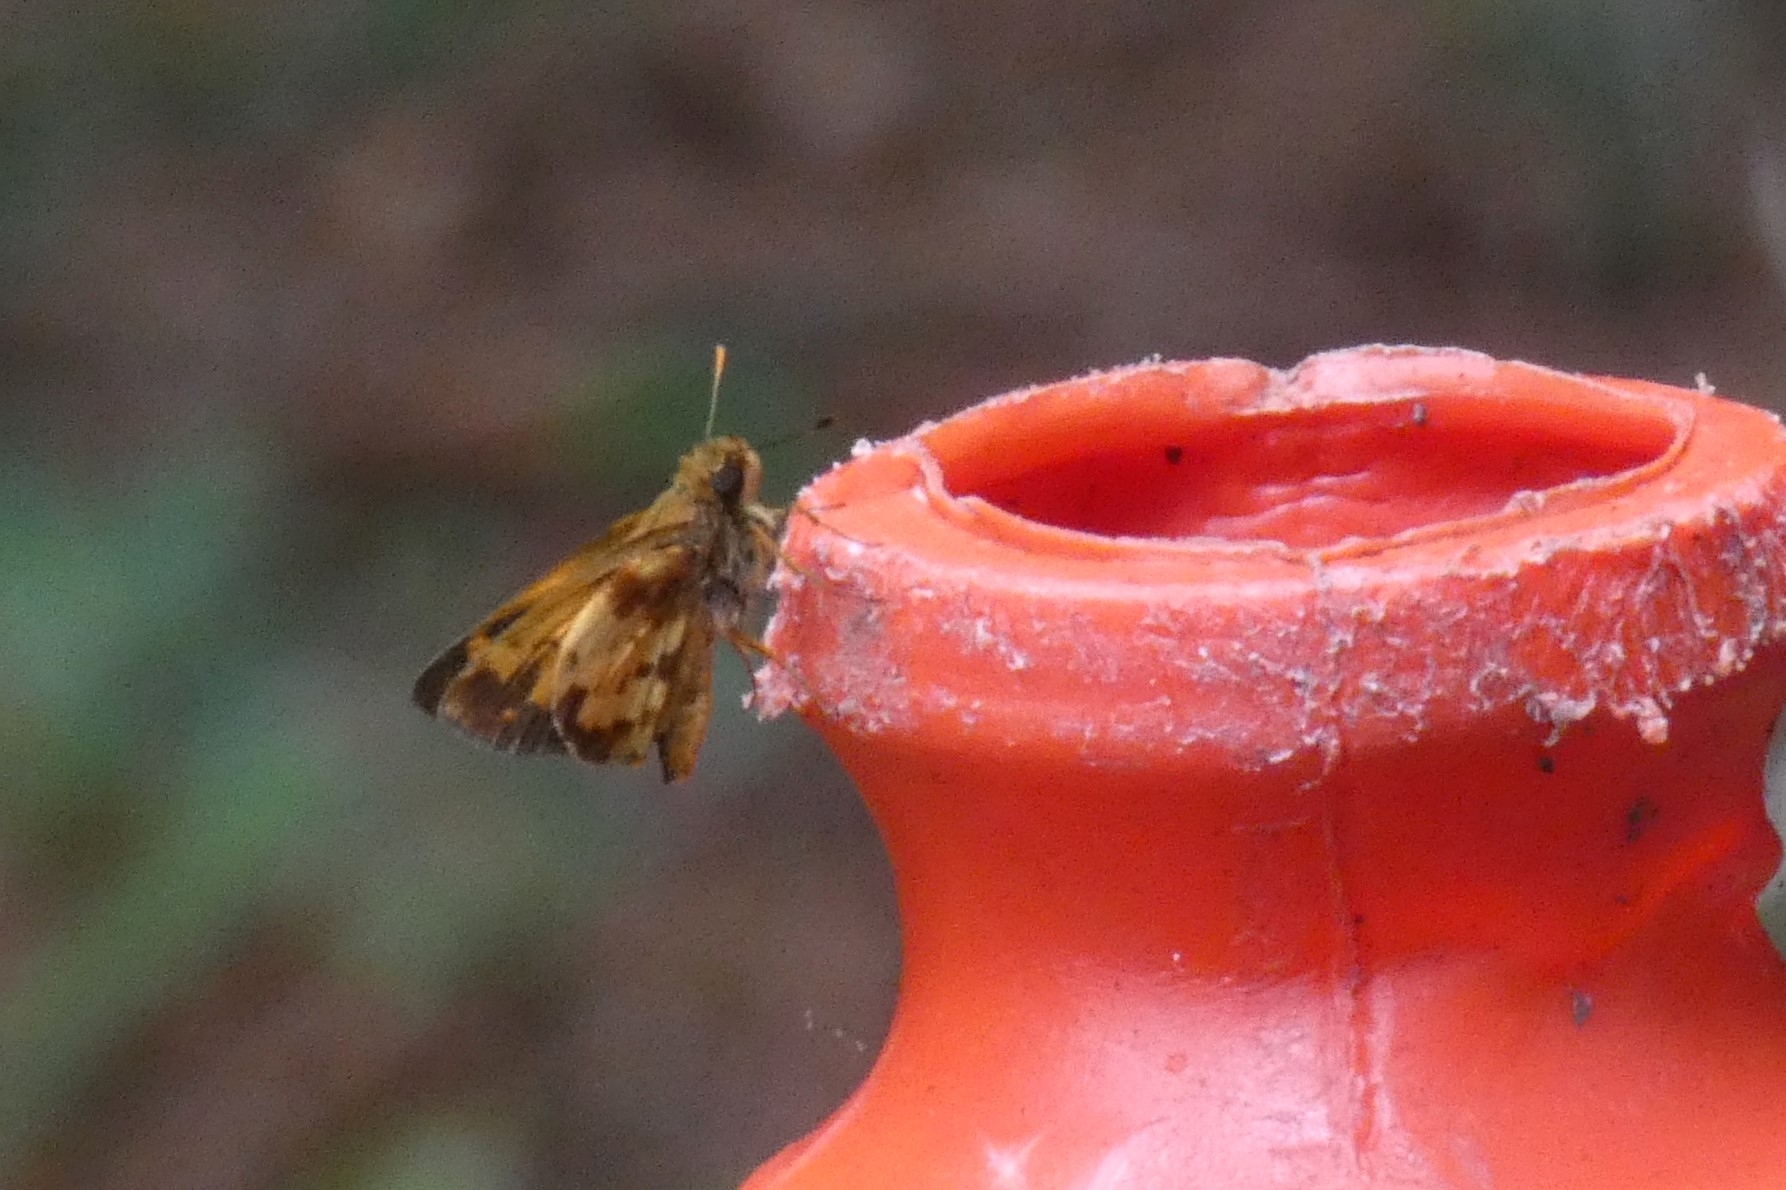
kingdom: Animalia
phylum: Arthropoda
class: Insecta
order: Lepidoptera
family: Hesperiidae
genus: Lon
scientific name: Lon zabulon
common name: Zabulon skipper
